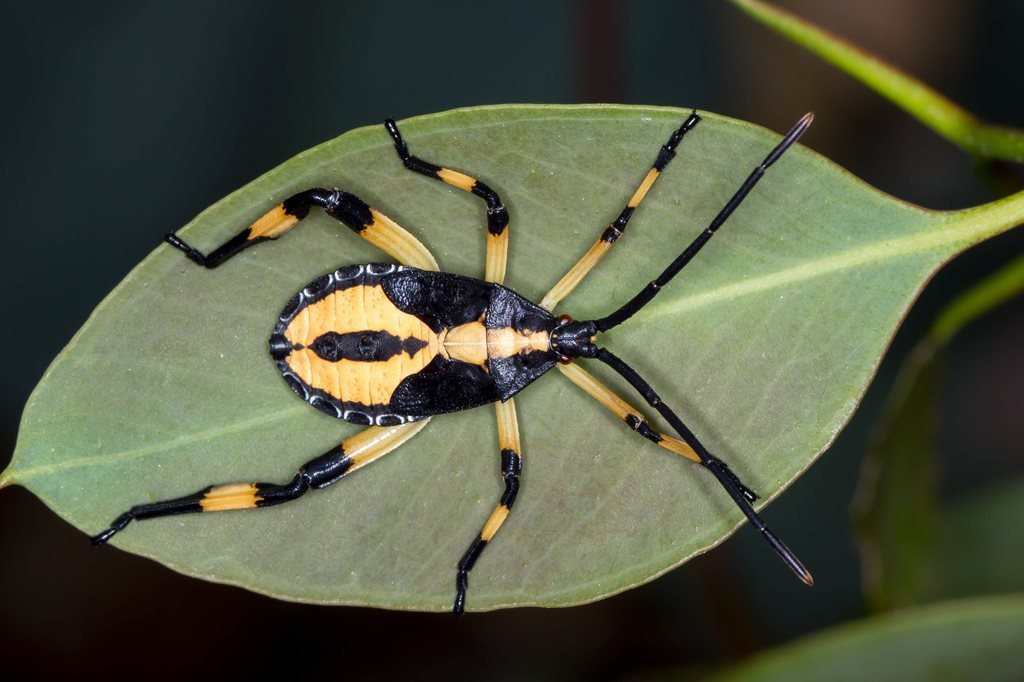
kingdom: Animalia
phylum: Arthropoda
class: Insecta
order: Hemiptera
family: Coreidae
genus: Amorbus
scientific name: Amorbus robustus
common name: Common gum-tree bug
